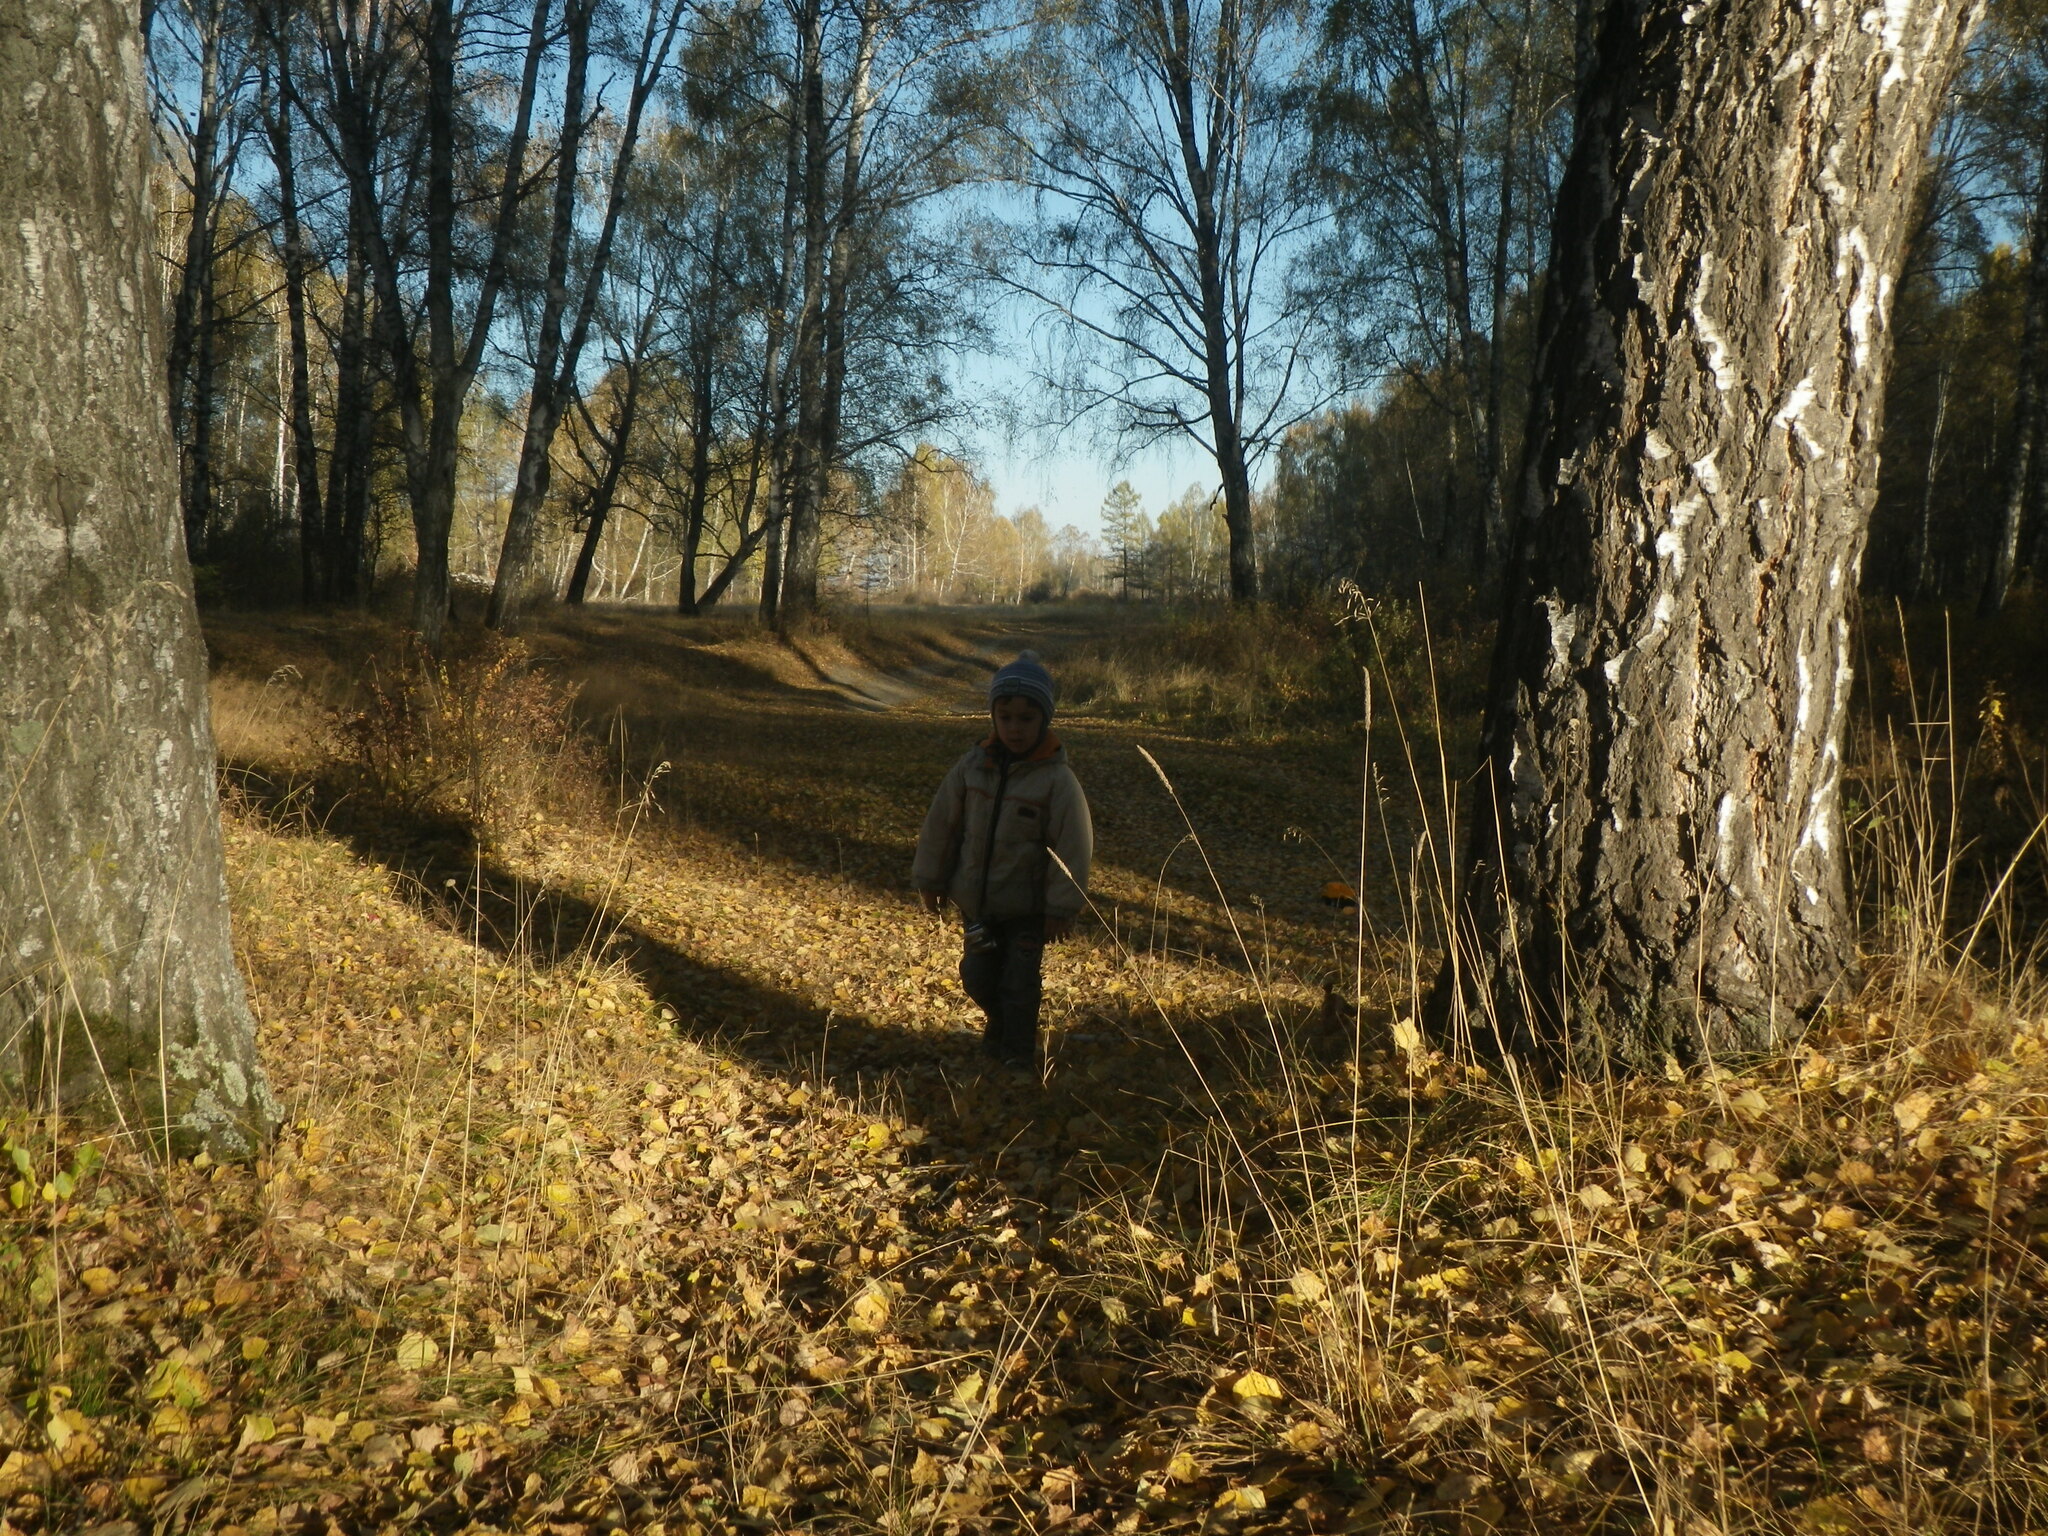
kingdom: Plantae
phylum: Tracheophyta
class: Magnoliopsida
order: Fagales
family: Betulaceae
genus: Betula
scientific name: Betula pendula
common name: Silver birch
